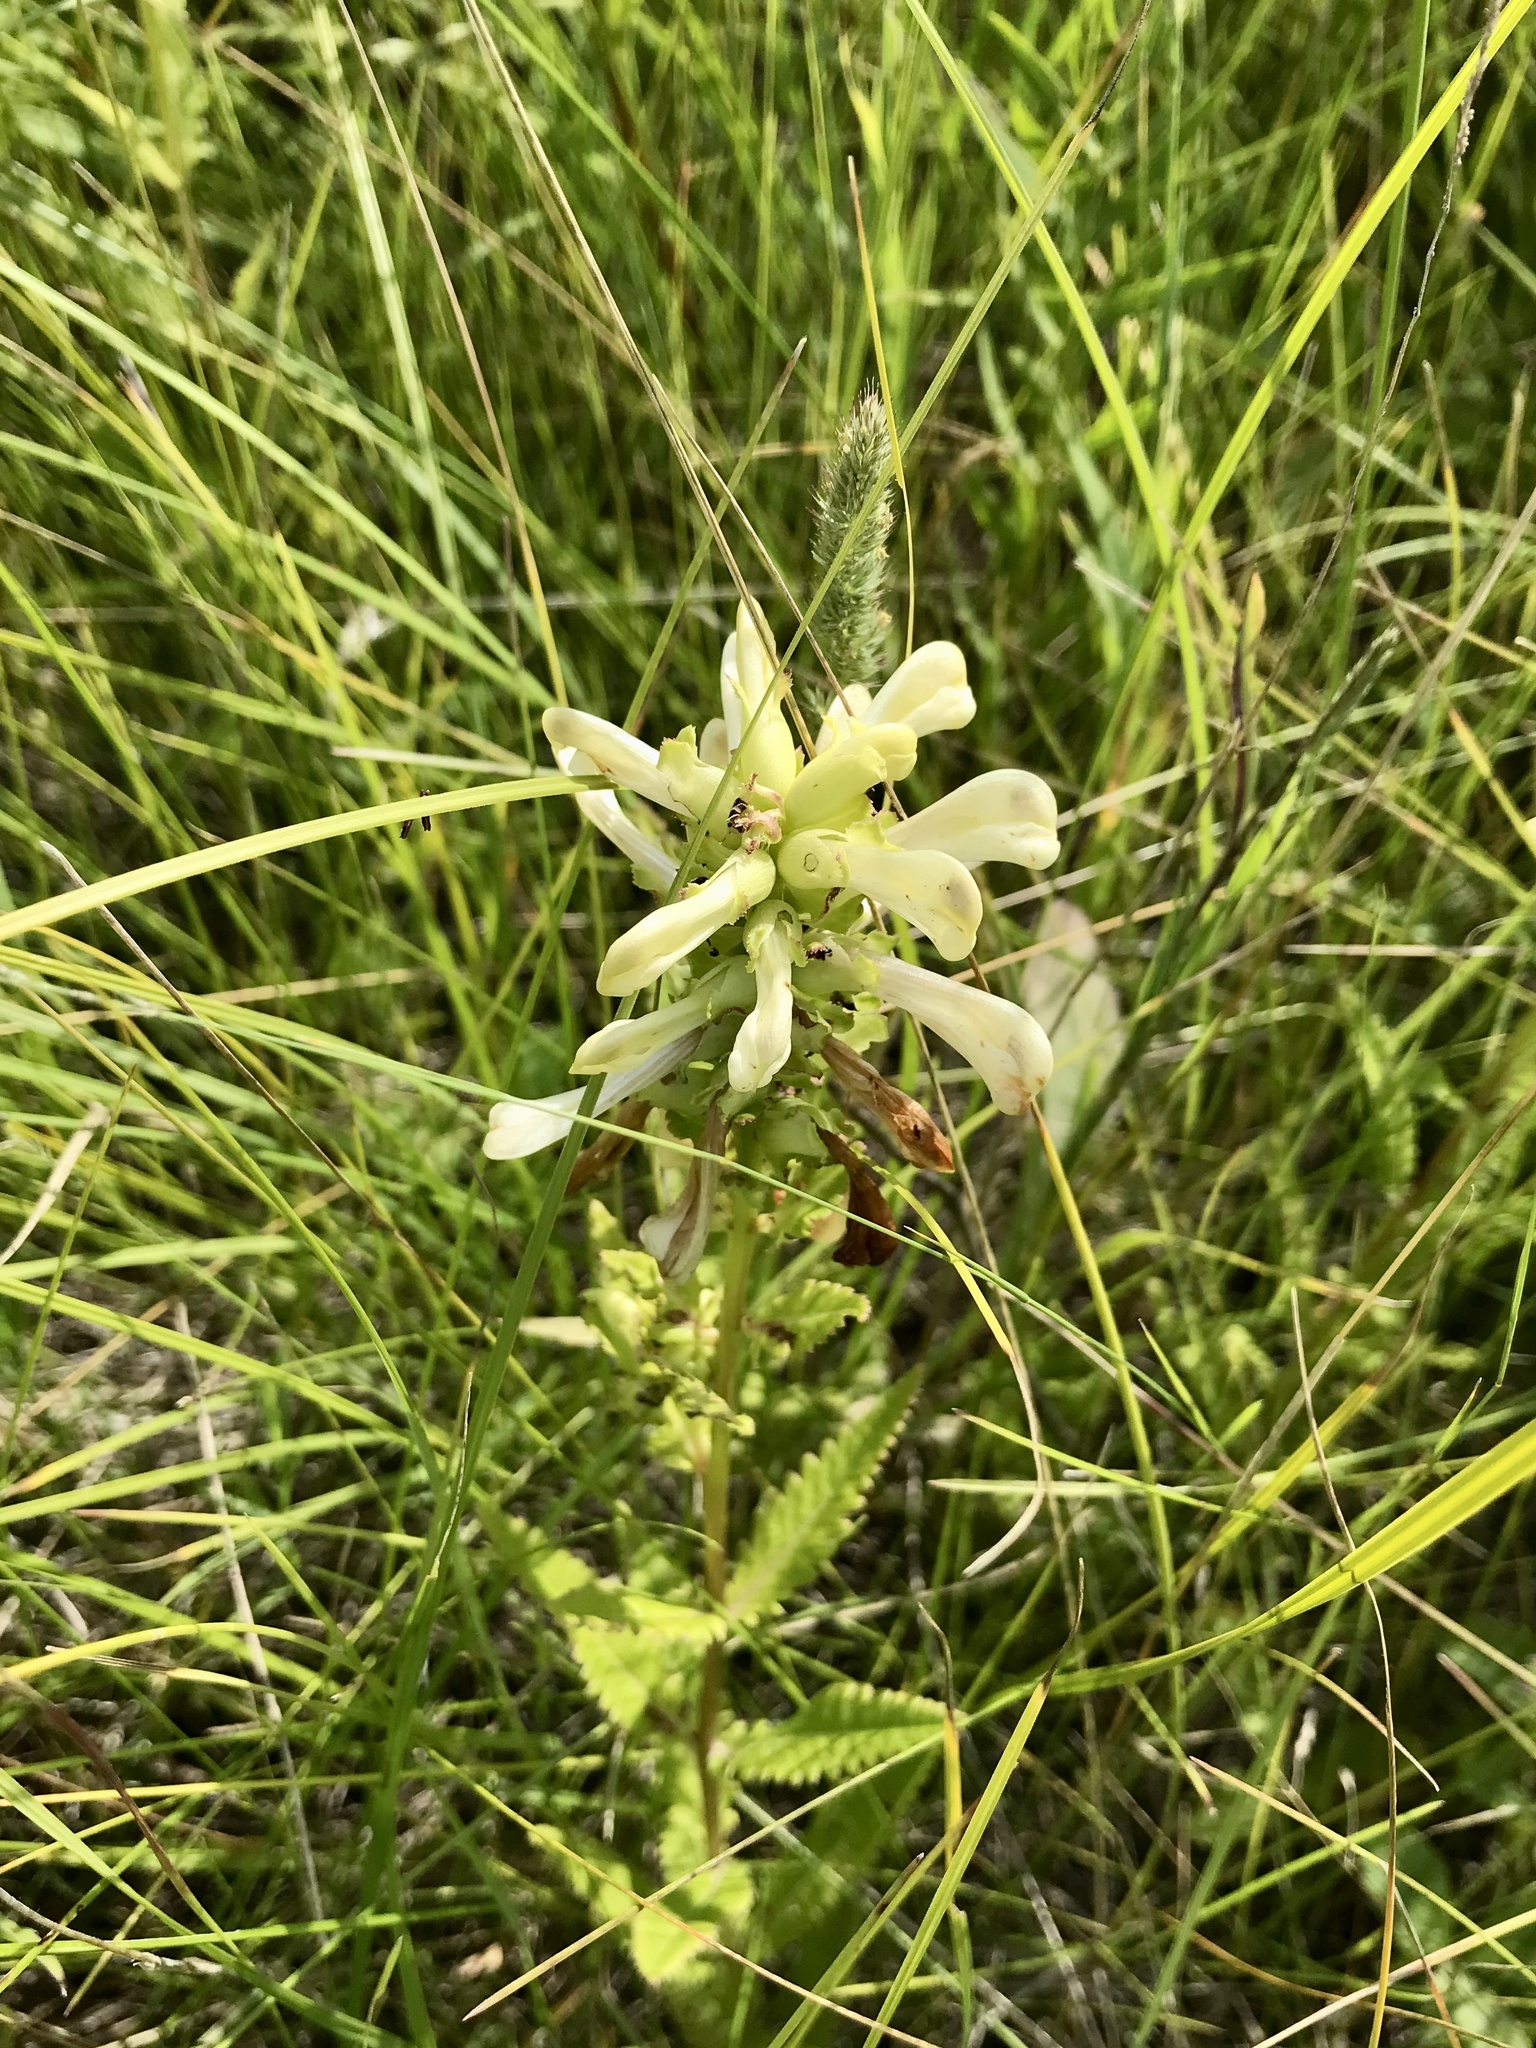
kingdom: Plantae
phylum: Tracheophyta
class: Magnoliopsida
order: Lamiales
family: Orobanchaceae
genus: Pedicularis
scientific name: Pedicularis lanceolata
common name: Swamp lousewort
